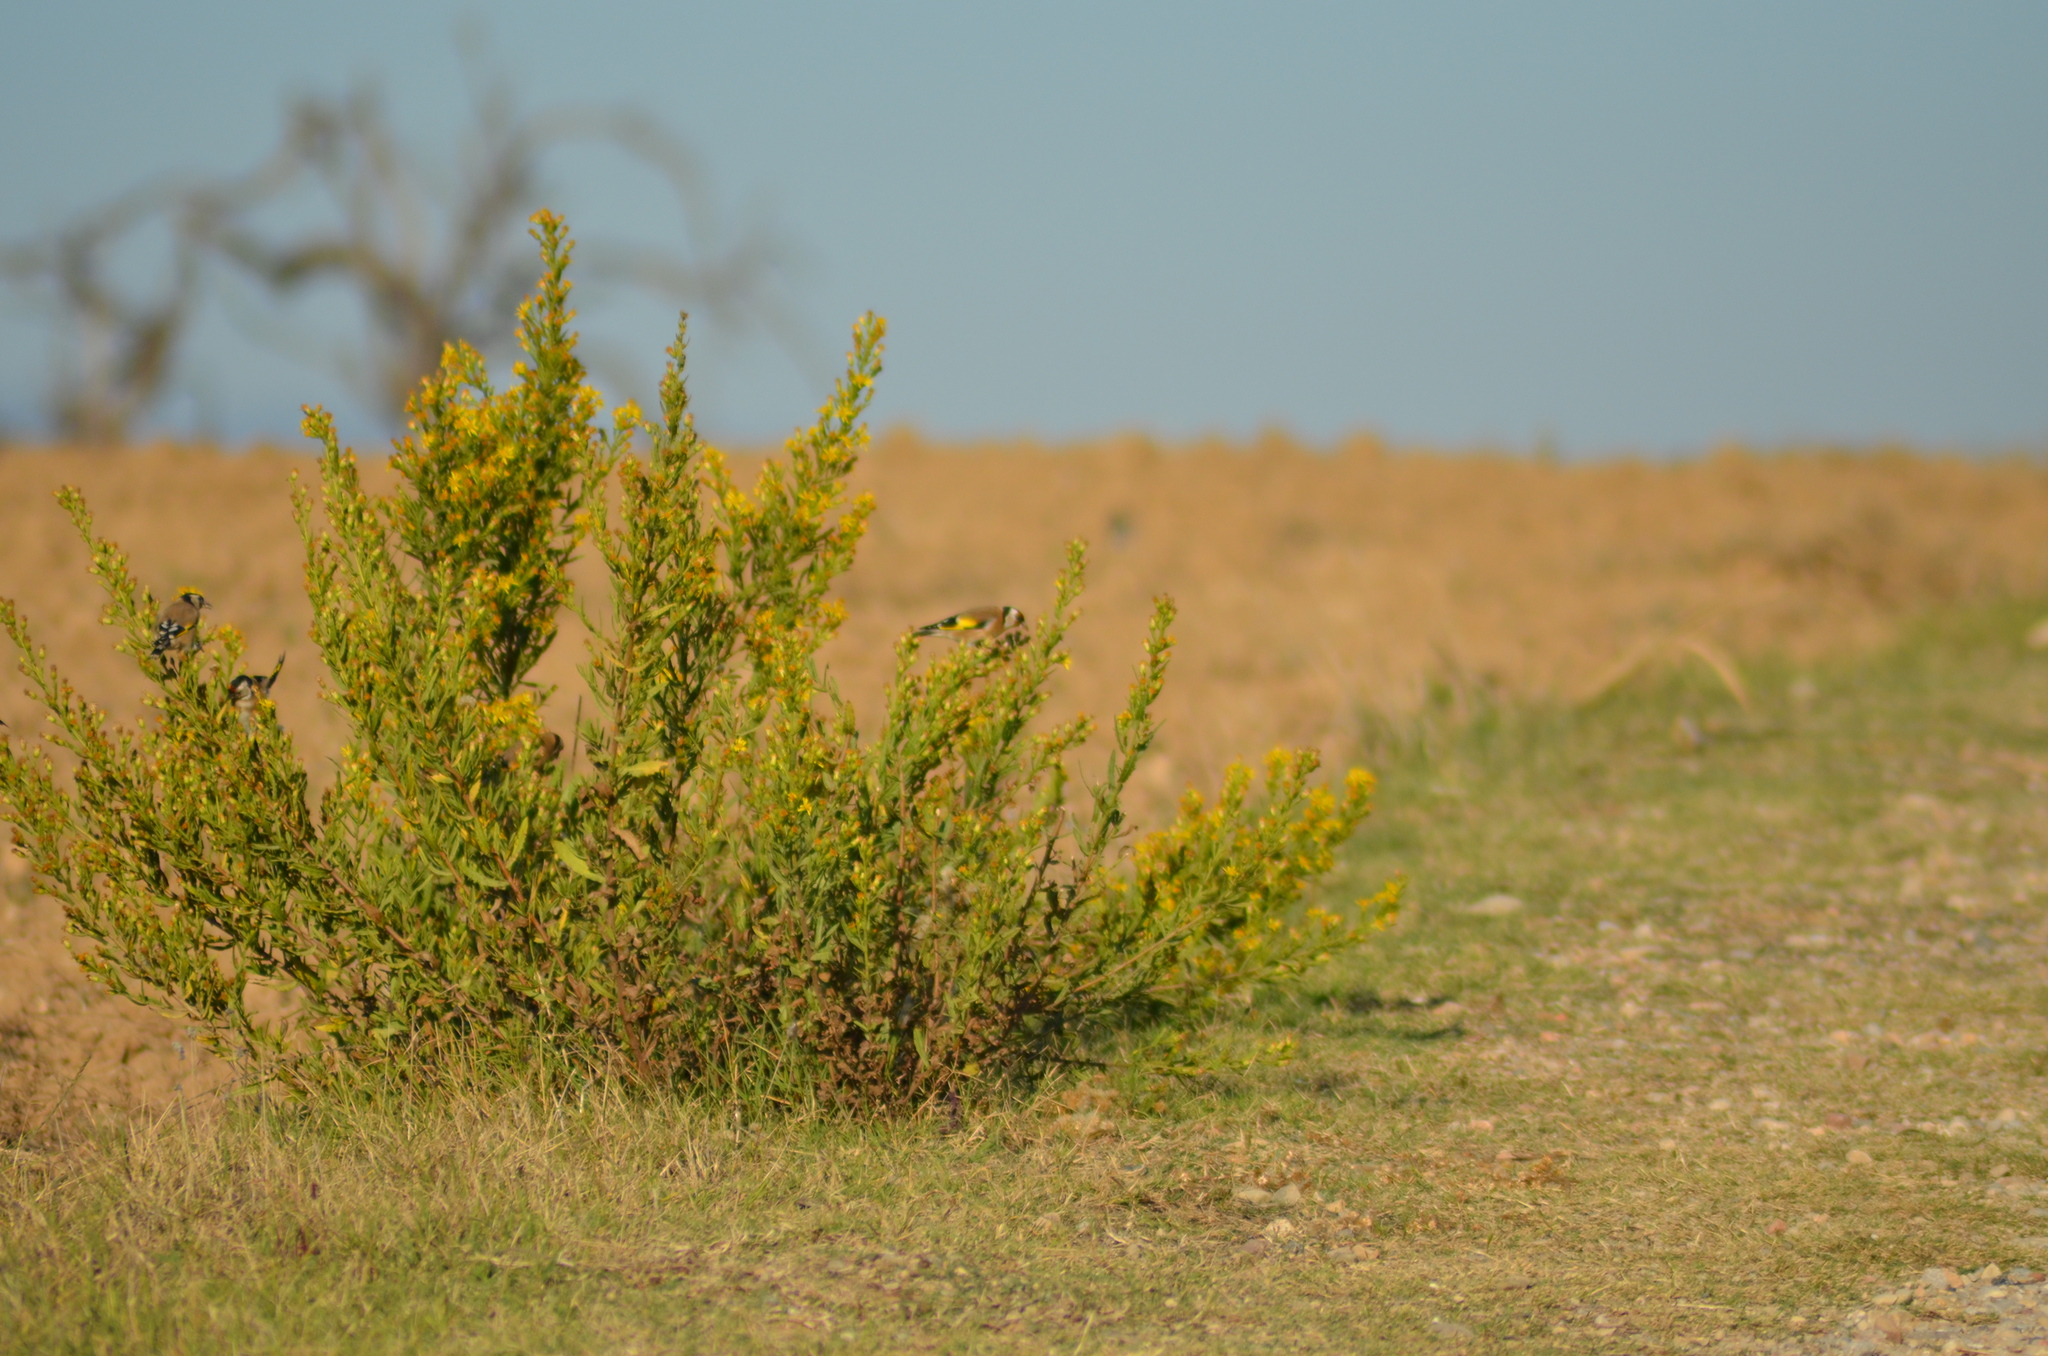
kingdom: Animalia
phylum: Chordata
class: Aves
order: Passeriformes
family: Fringillidae
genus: Carduelis
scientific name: Carduelis carduelis
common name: European goldfinch
